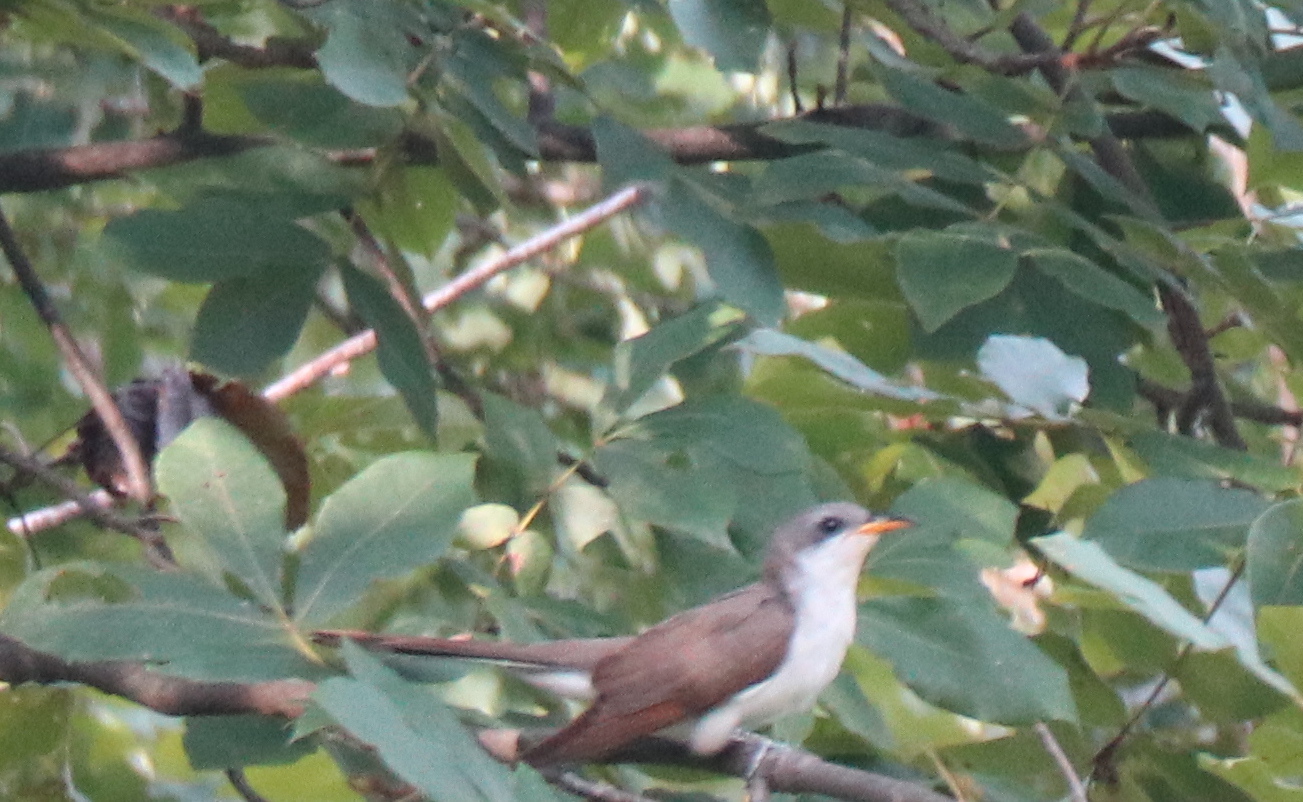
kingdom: Animalia
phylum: Chordata
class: Aves
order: Cuculiformes
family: Cuculidae
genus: Coccyzus
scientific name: Coccyzus americanus
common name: Yellow-billed cuckoo
